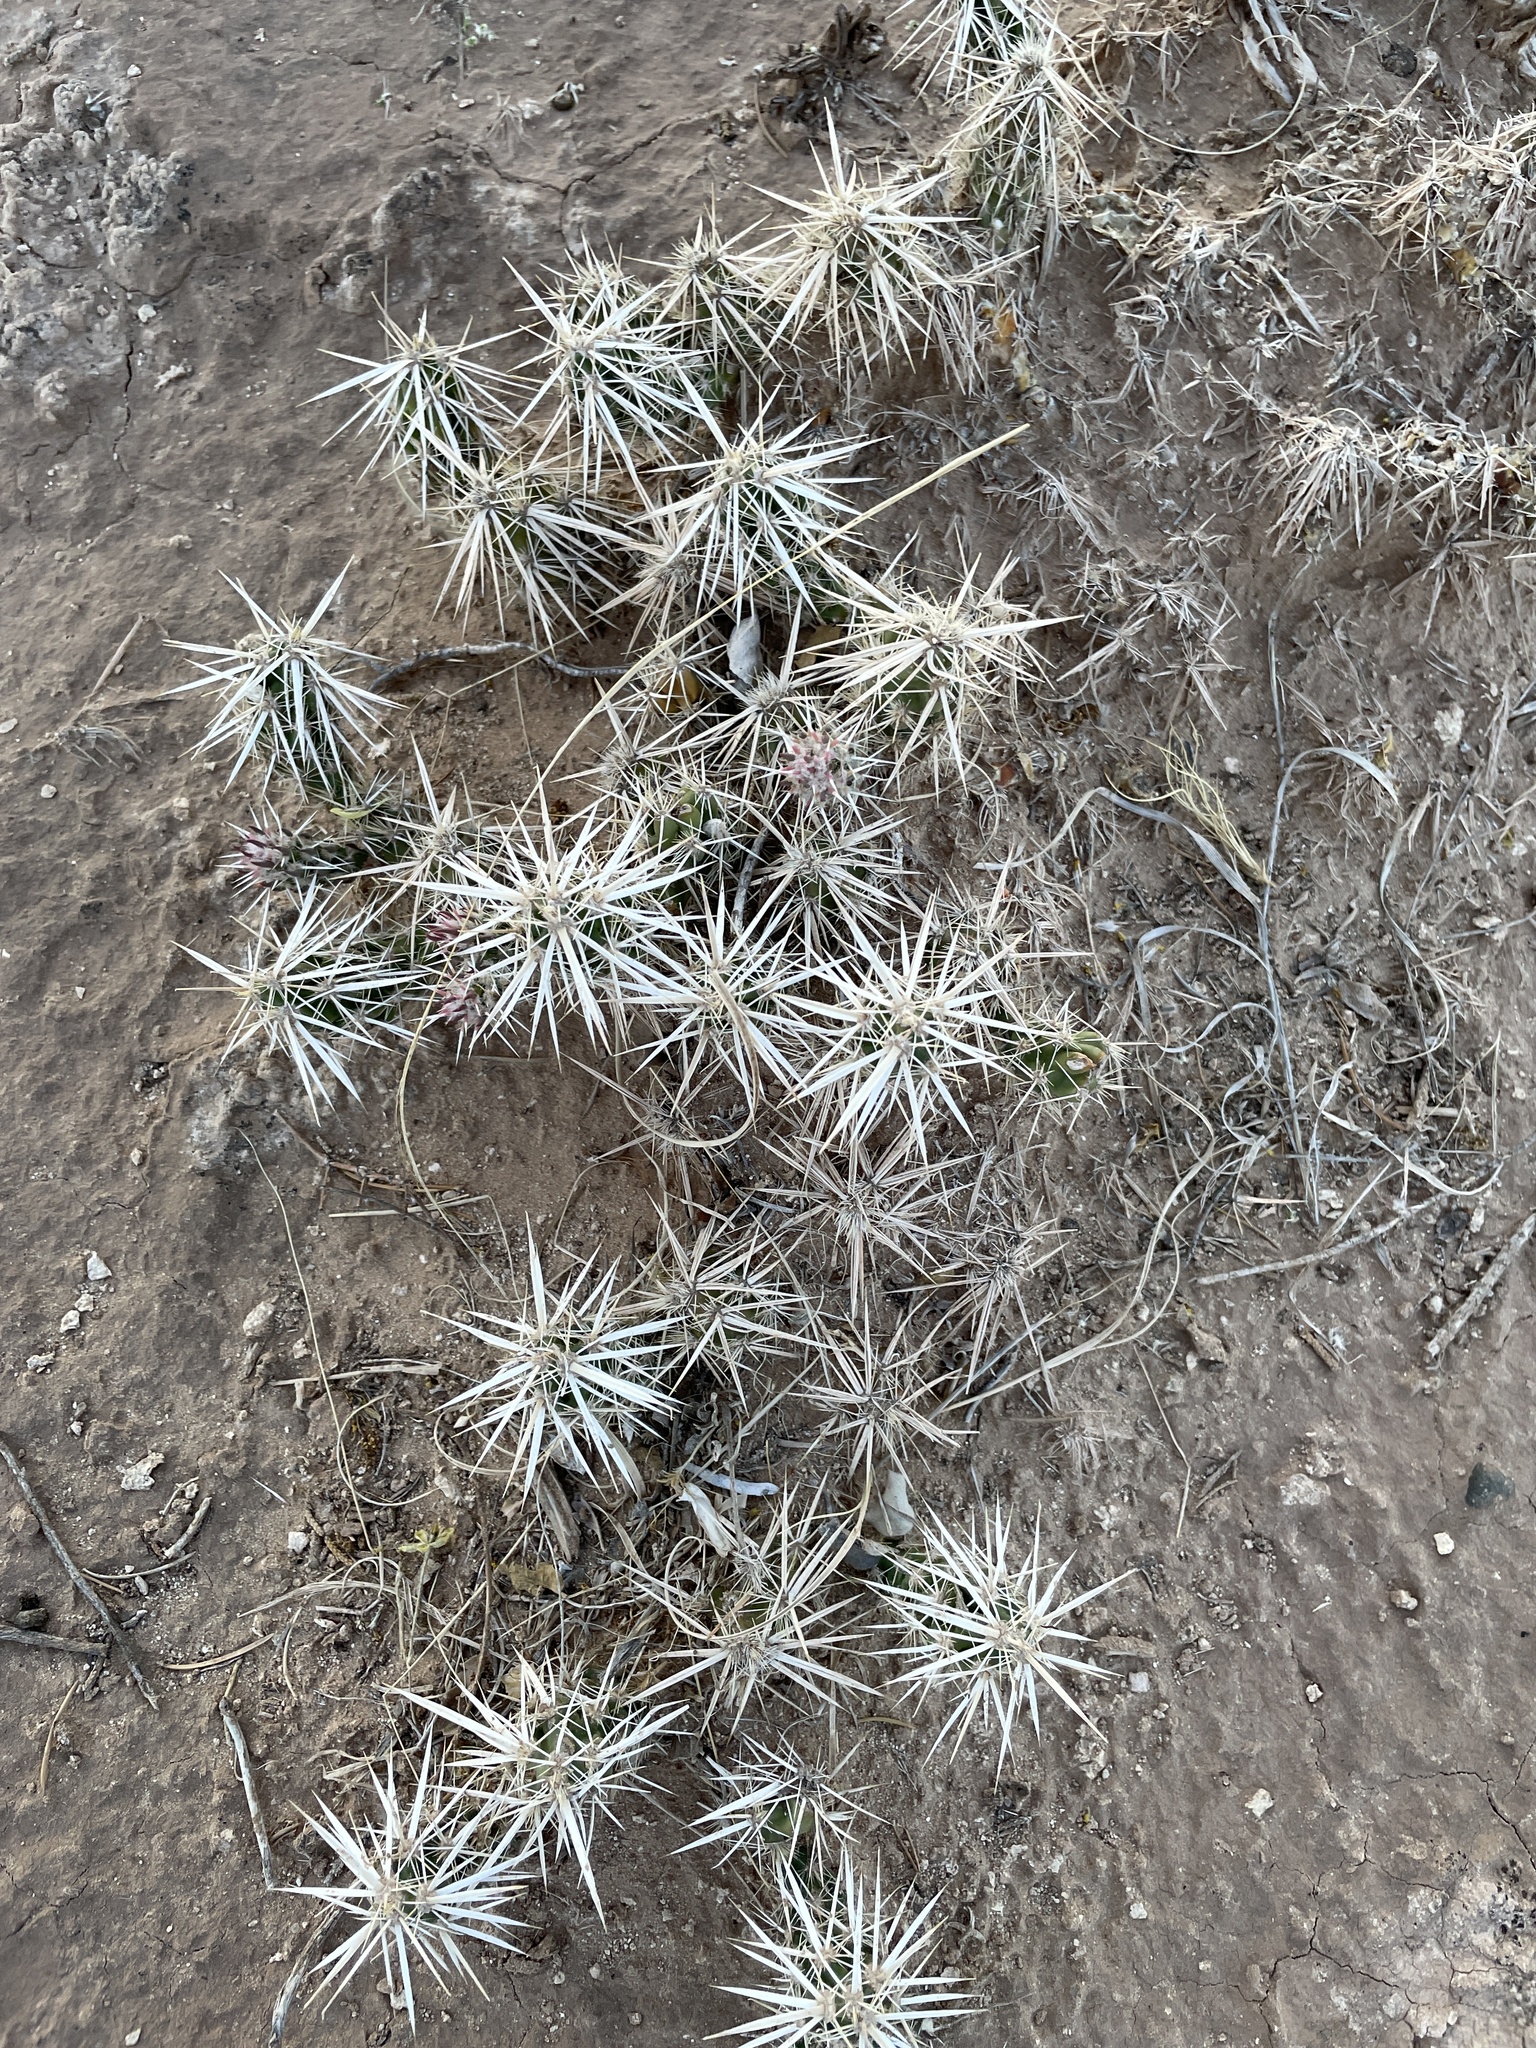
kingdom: Plantae
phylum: Tracheophyta
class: Magnoliopsida
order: Caryophyllales
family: Cactaceae
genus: Grusonia
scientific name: Grusonia clavata
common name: Club cholla
